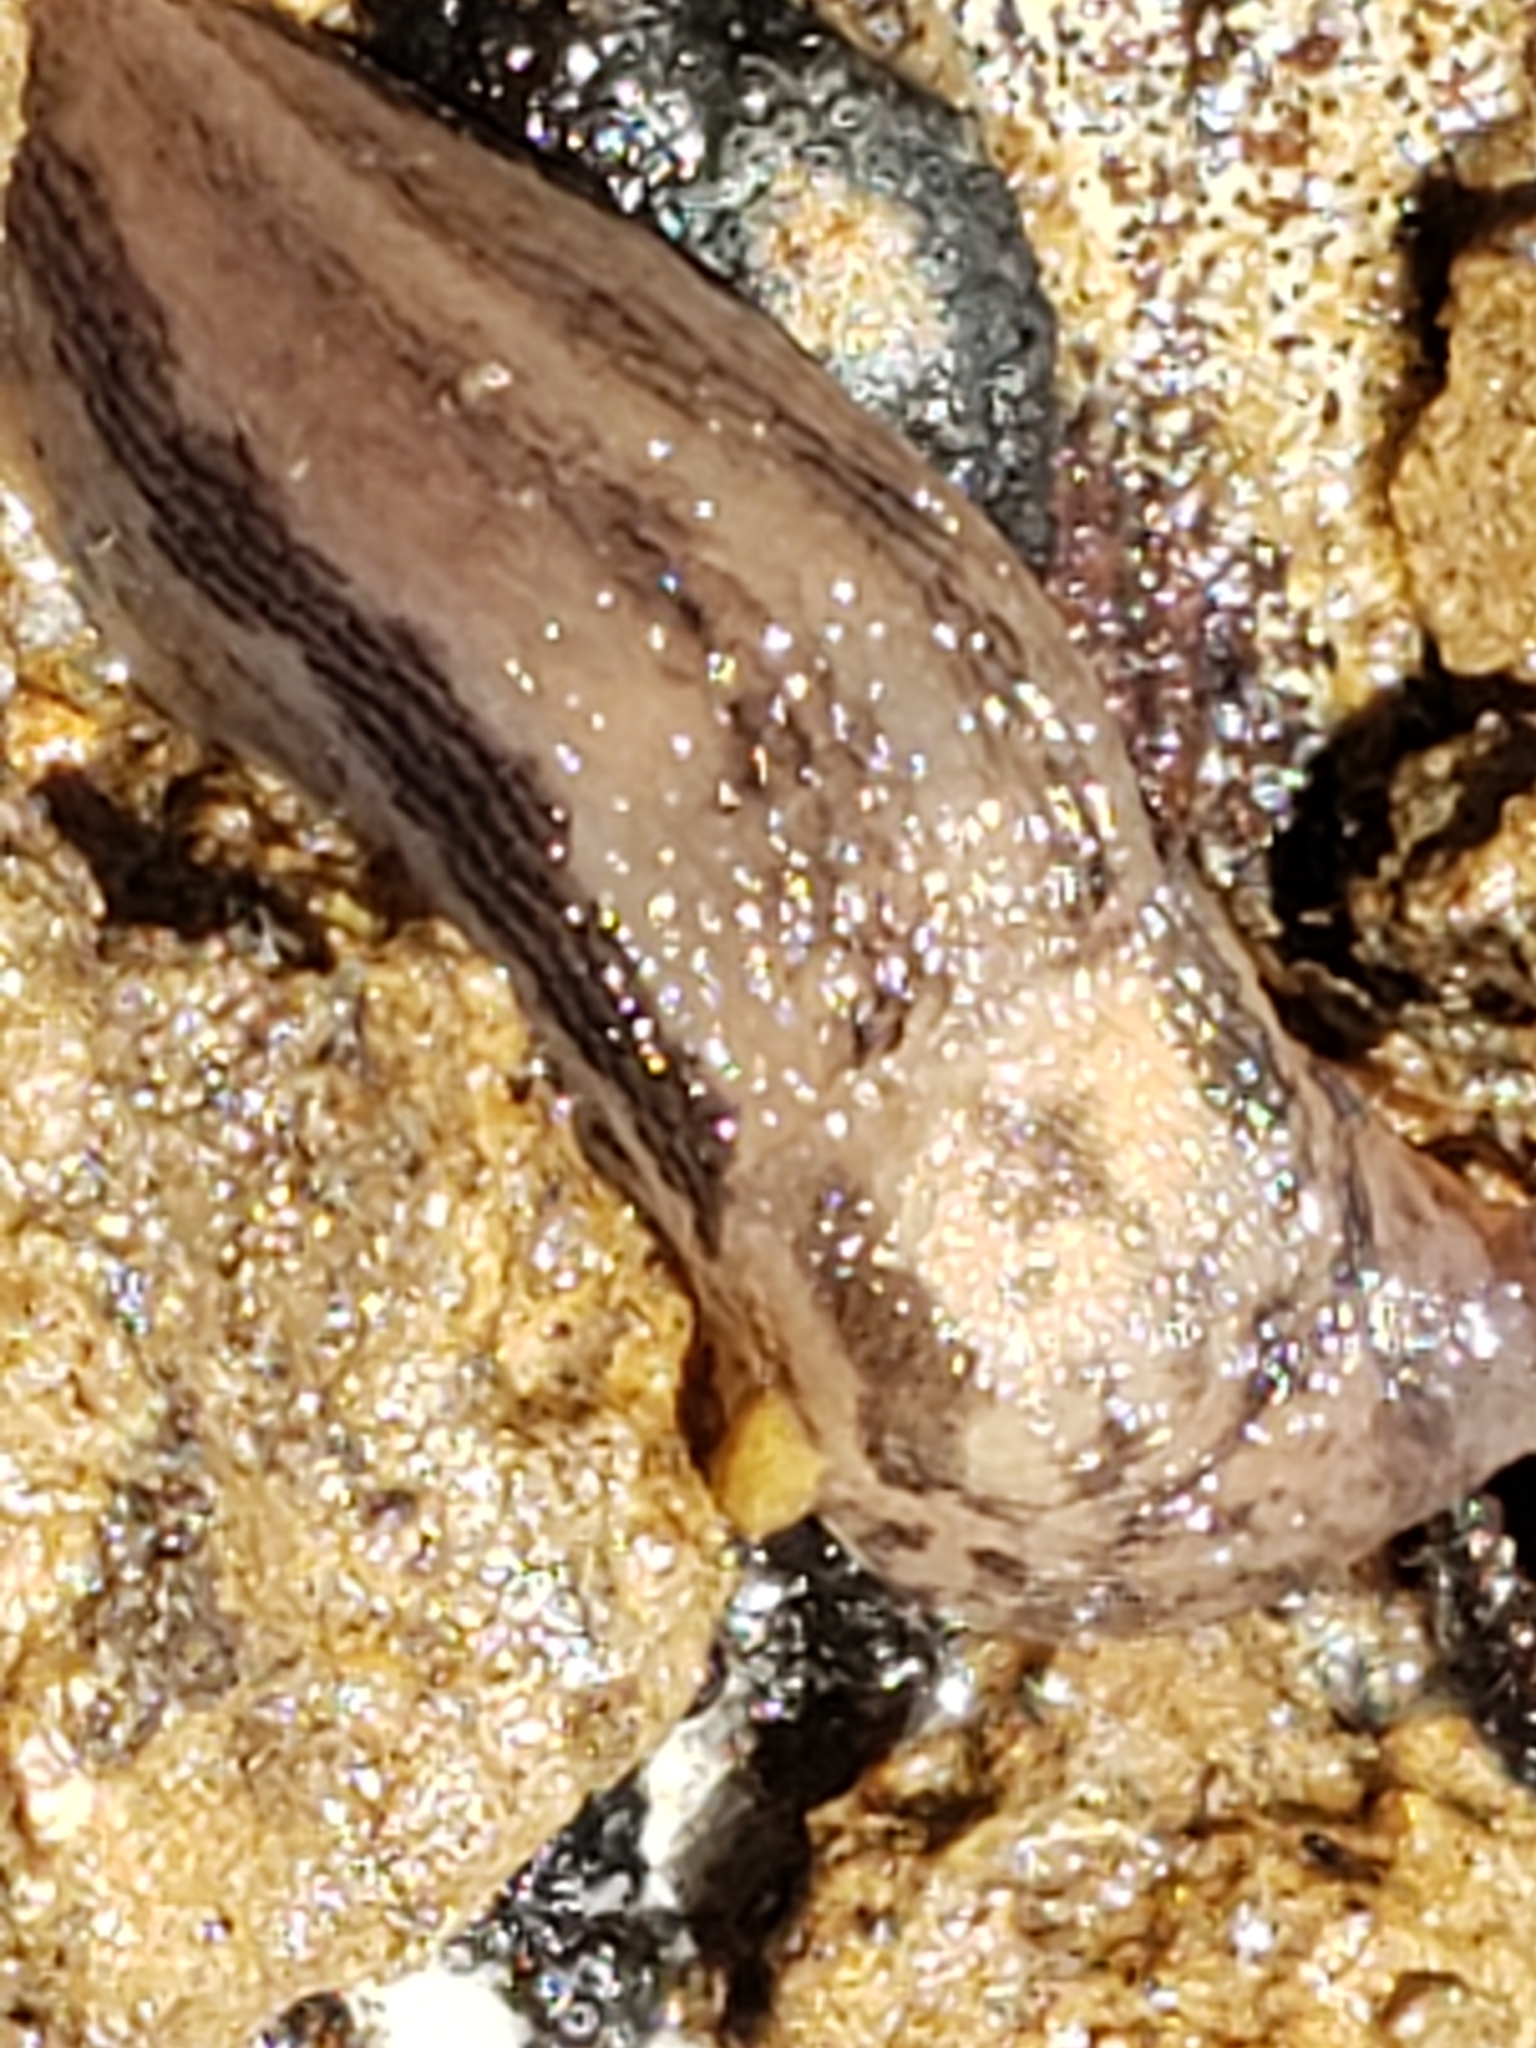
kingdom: Animalia
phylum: Mollusca
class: Gastropoda
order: Stylommatophora
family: Limacidae
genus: Limax
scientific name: Limax maximus
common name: Great grey slug
